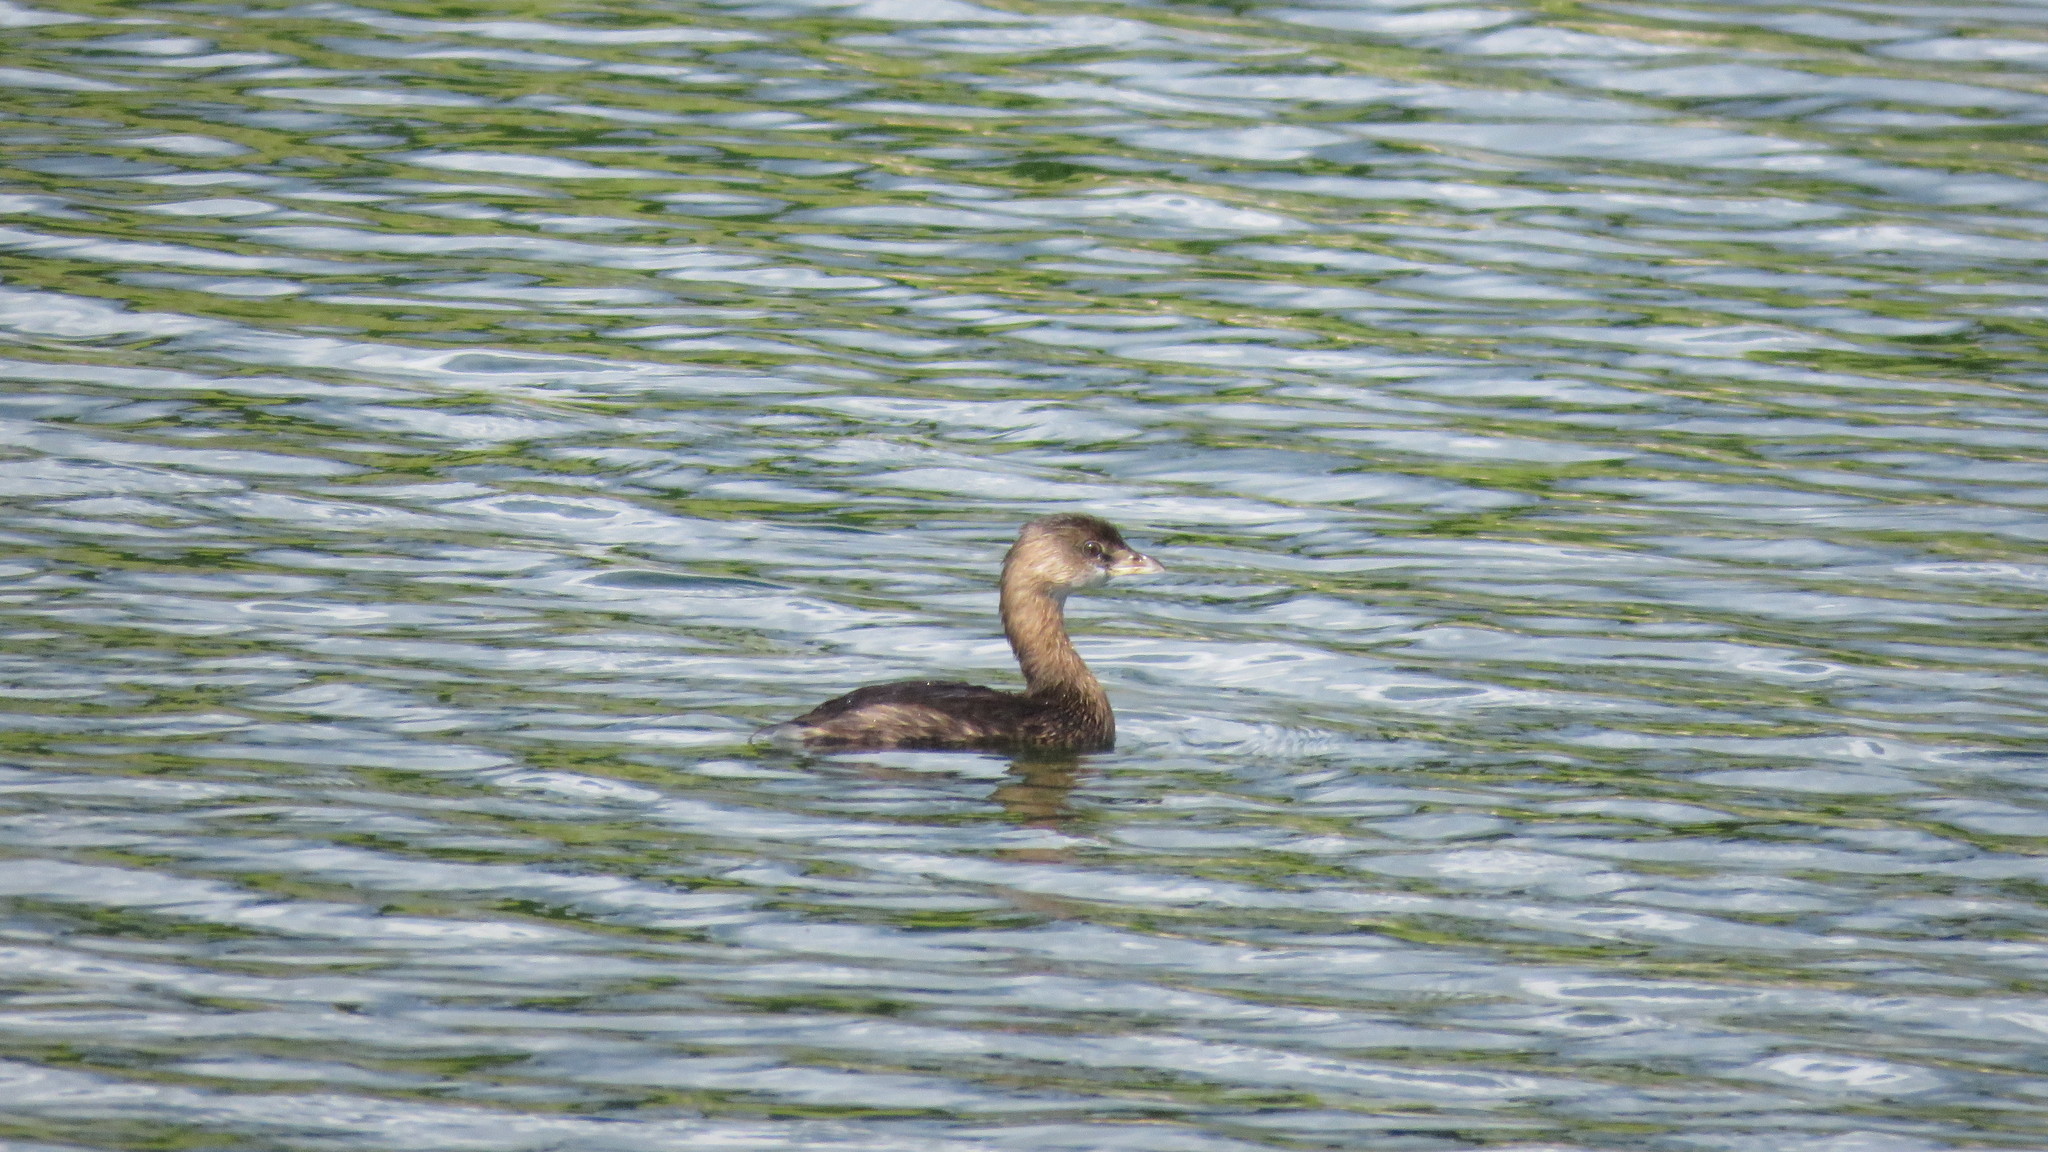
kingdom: Animalia
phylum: Chordata
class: Aves
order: Podicipediformes
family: Podicipedidae
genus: Podilymbus
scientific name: Podilymbus podiceps
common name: Pied-billed grebe
